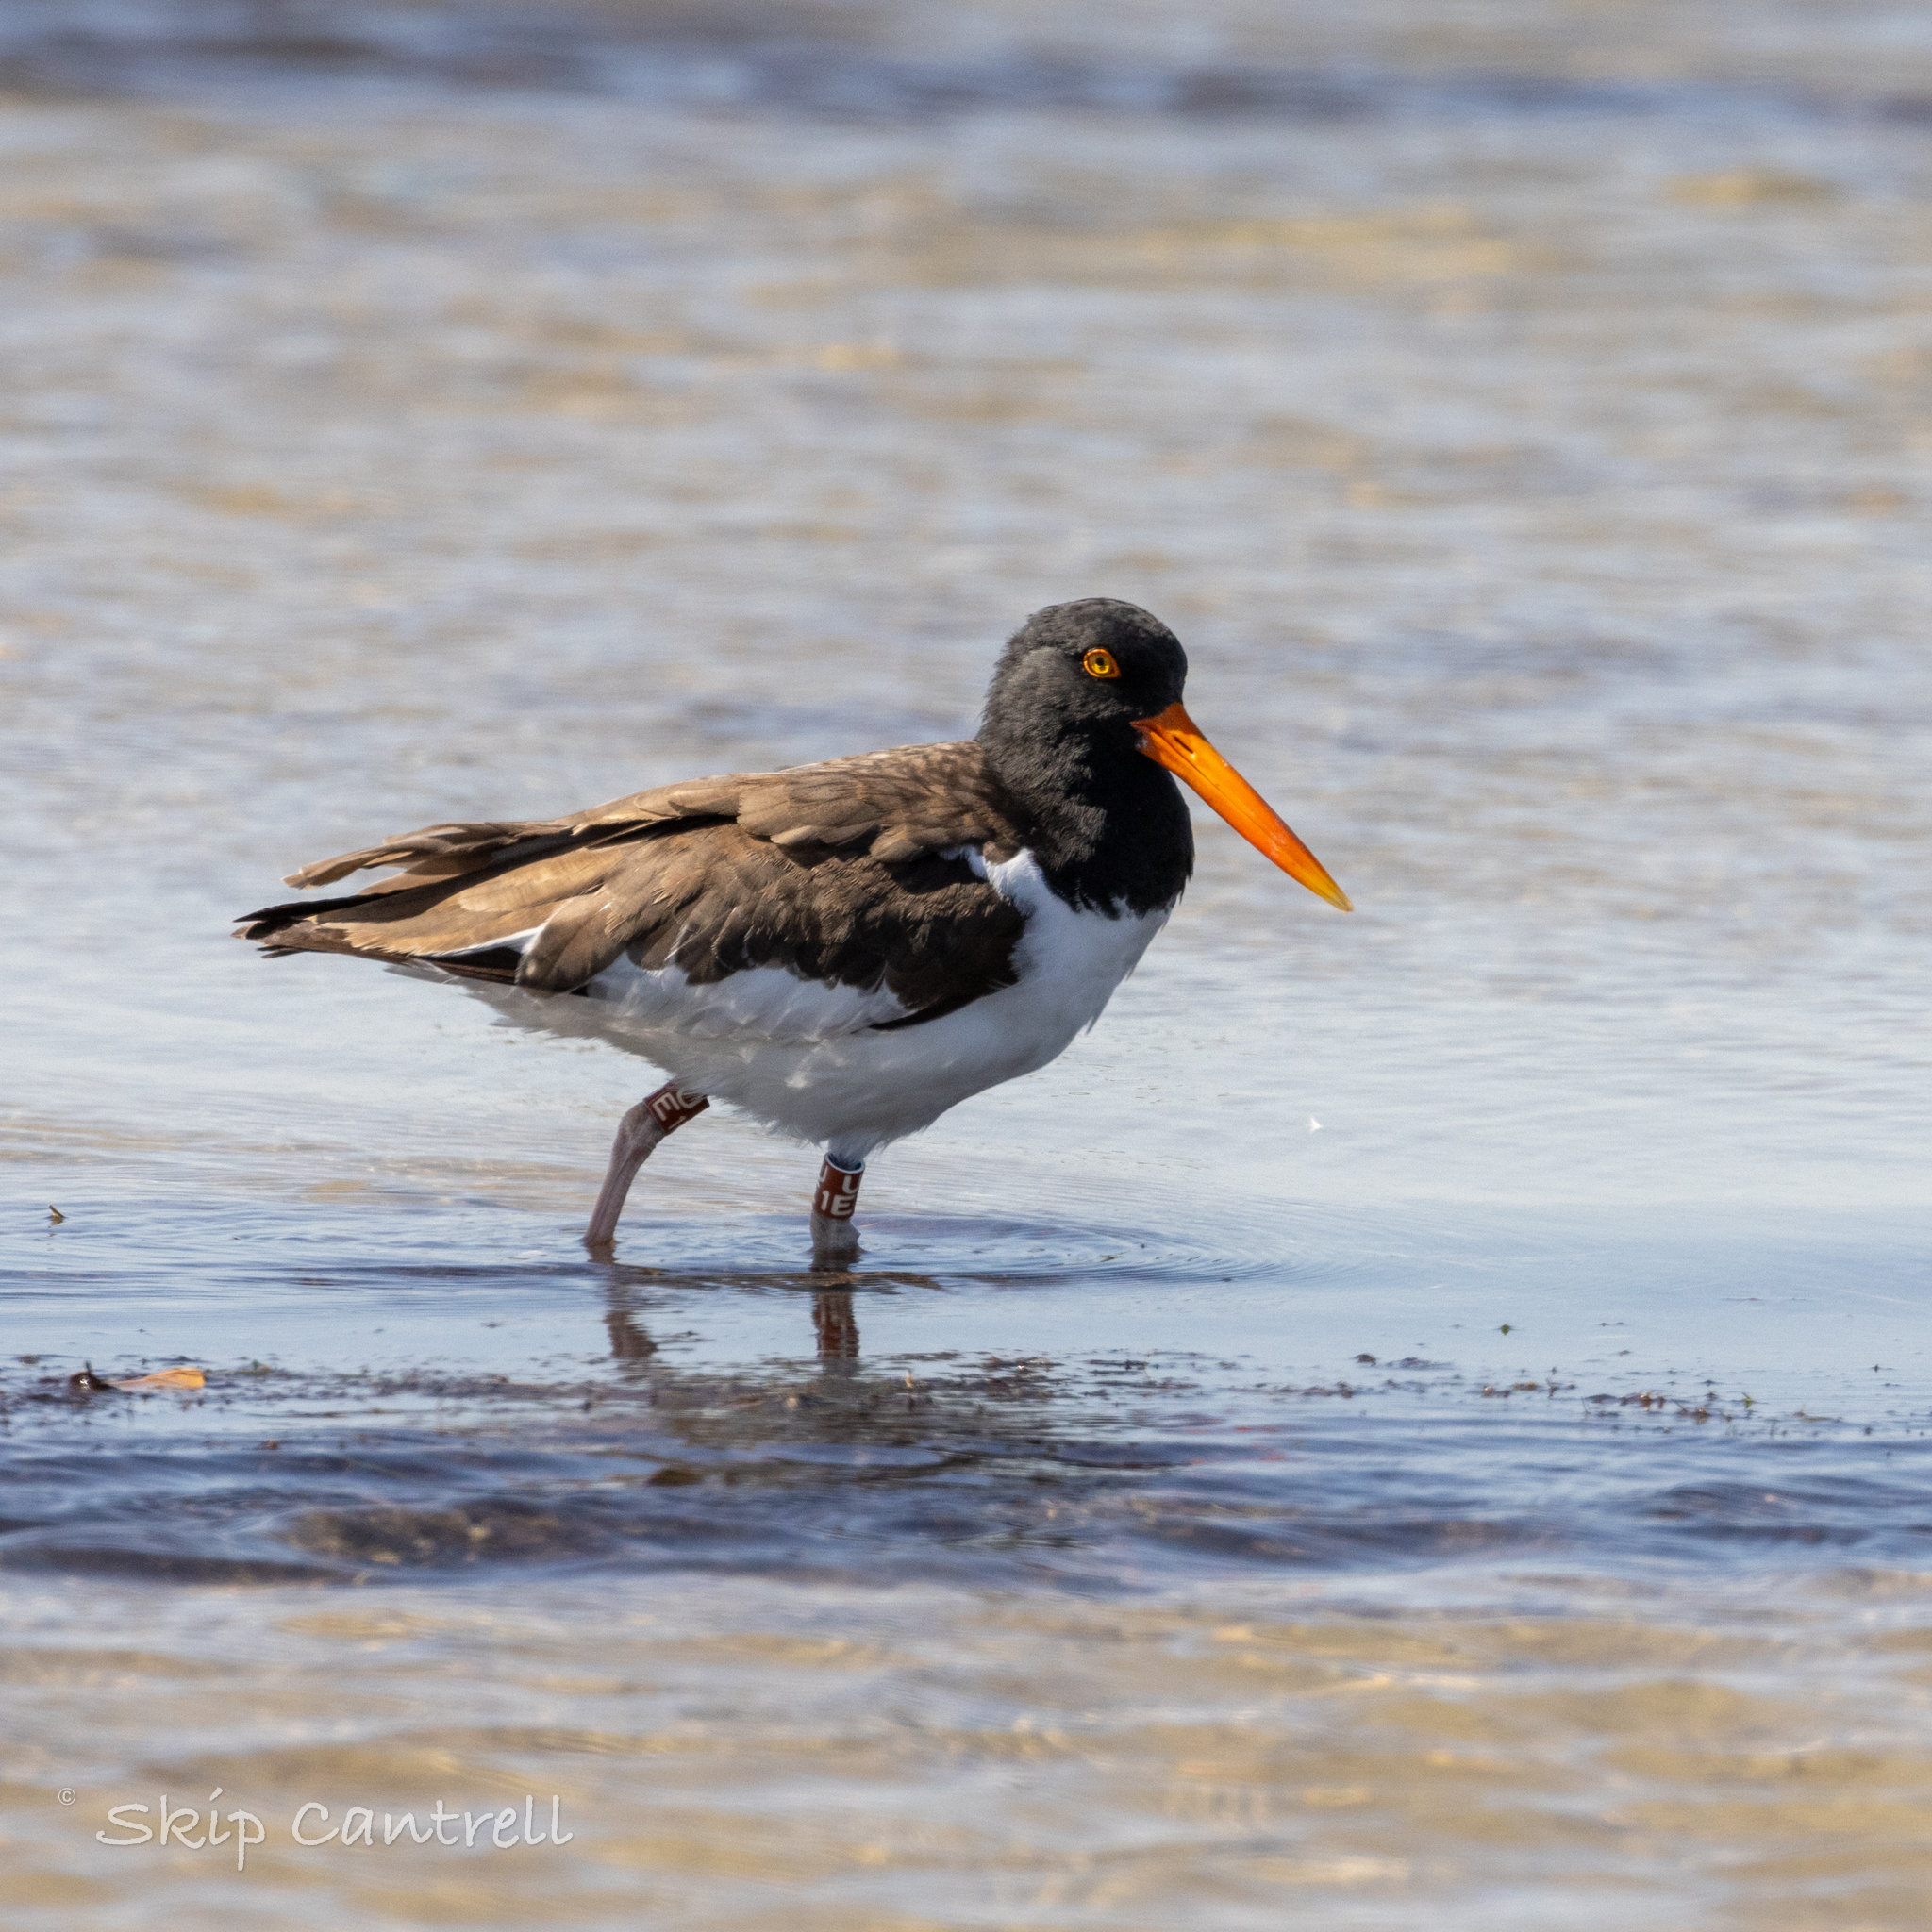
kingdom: Animalia
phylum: Chordata
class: Aves
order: Charadriiformes
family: Haematopodidae
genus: Haematopus
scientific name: Haematopus palliatus
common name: American oystercatcher
